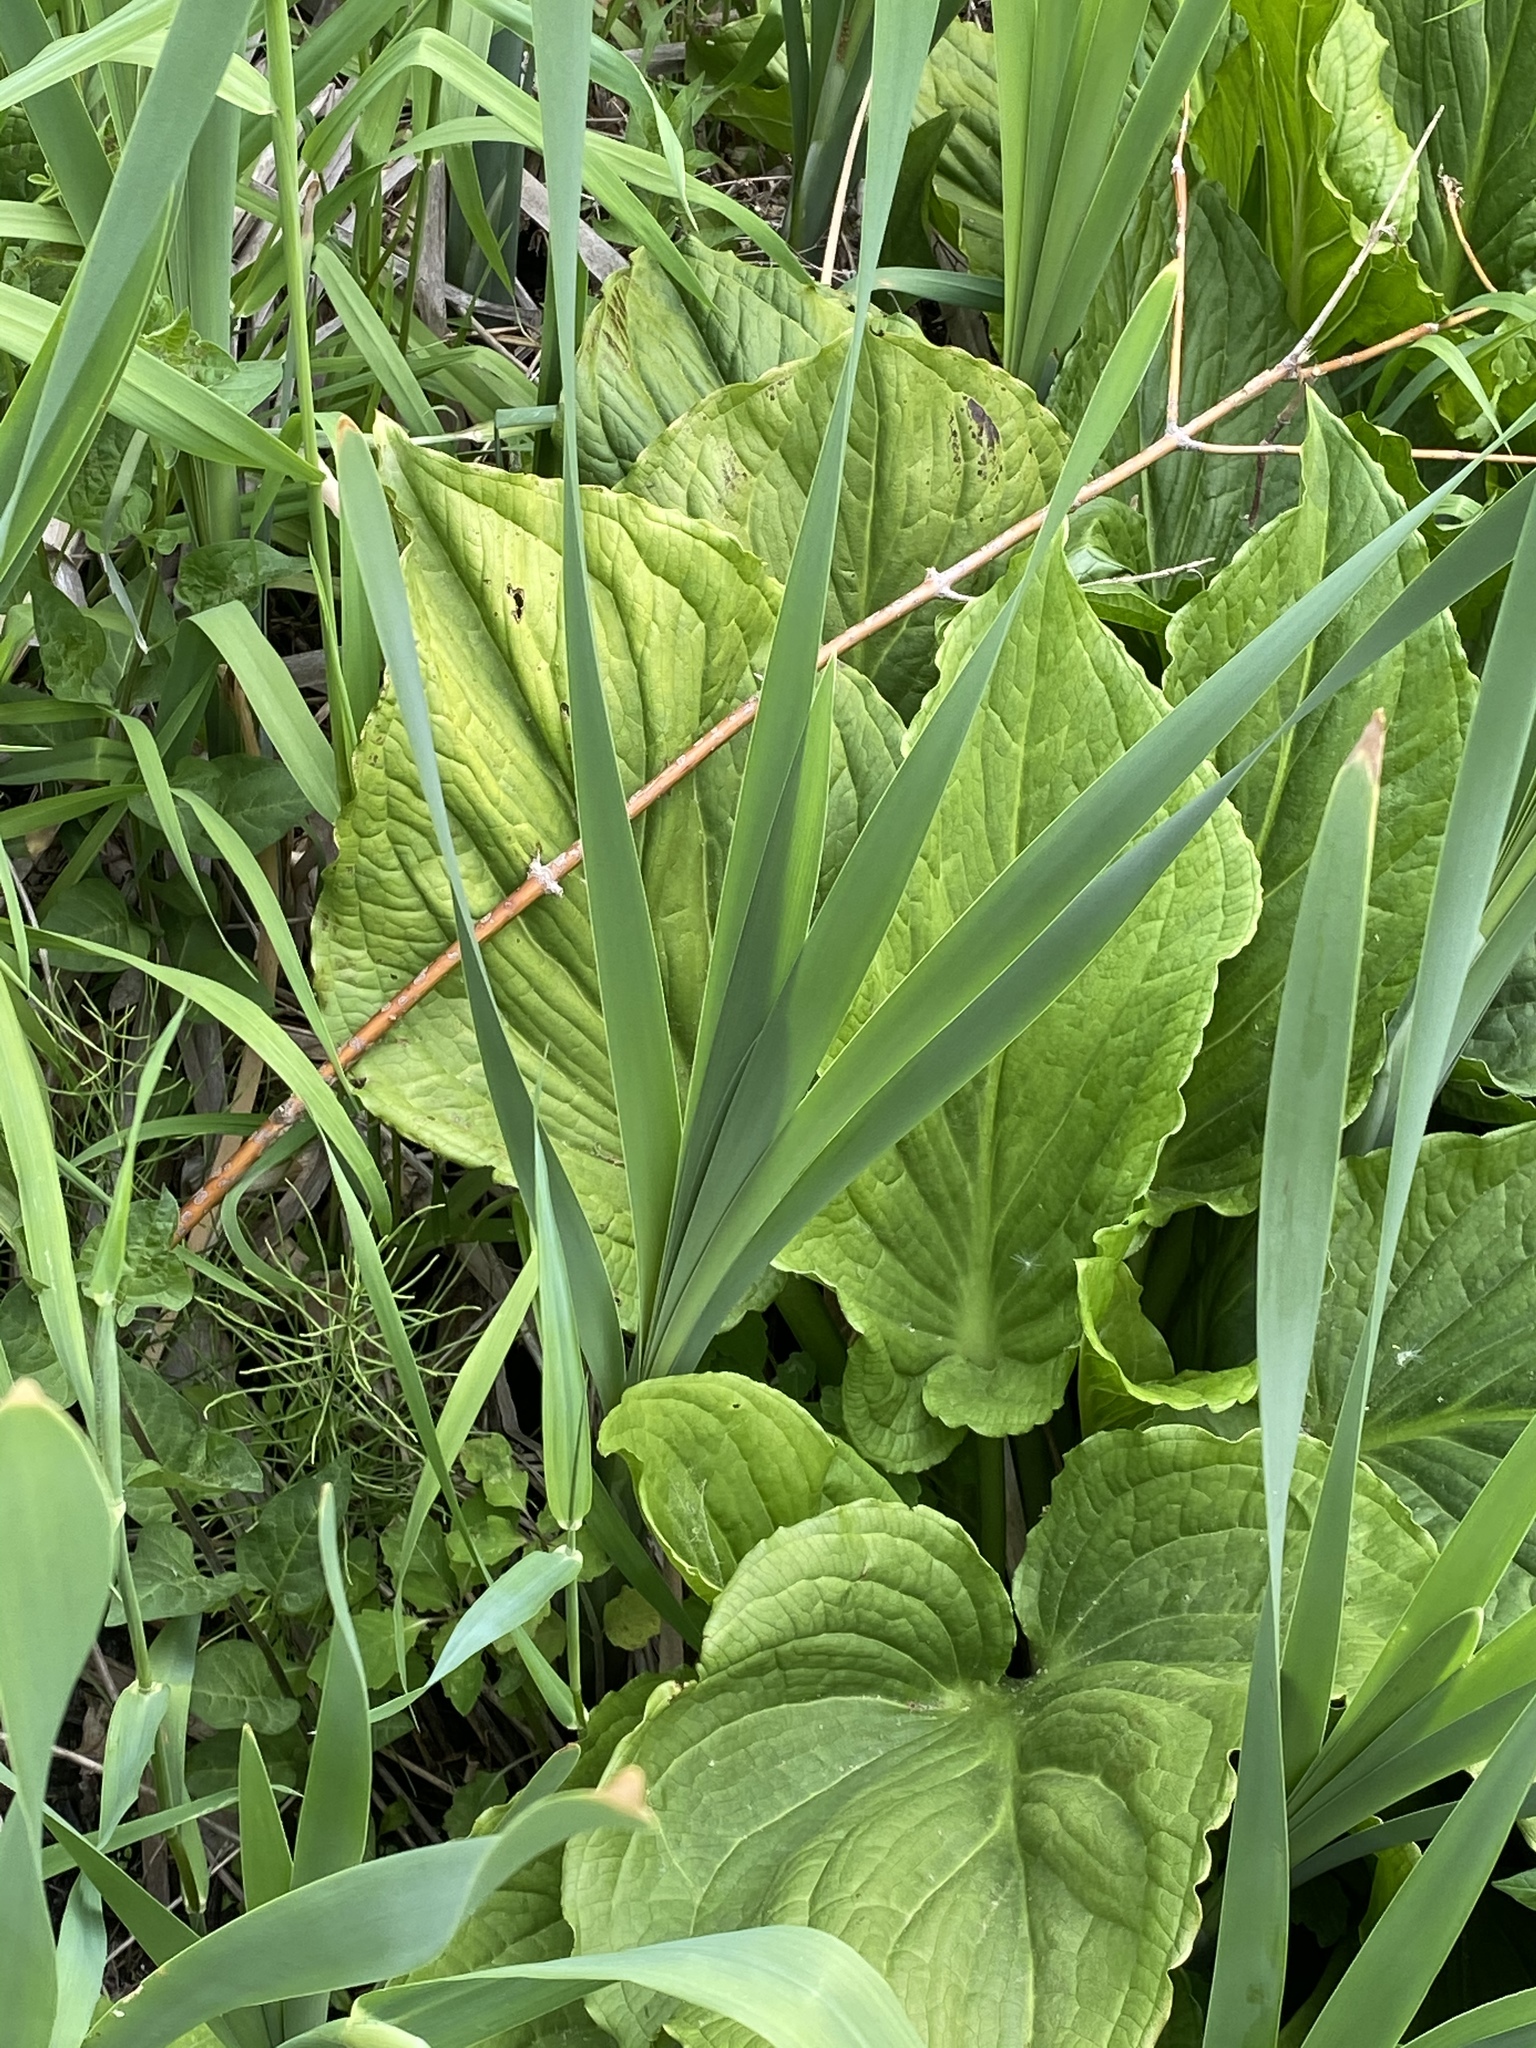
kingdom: Plantae
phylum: Tracheophyta
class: Liliopsida
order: Alismatales
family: Araceae
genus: Symplocarpus
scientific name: Symplocarpus foetidus
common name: Eastern skunk cabbage
